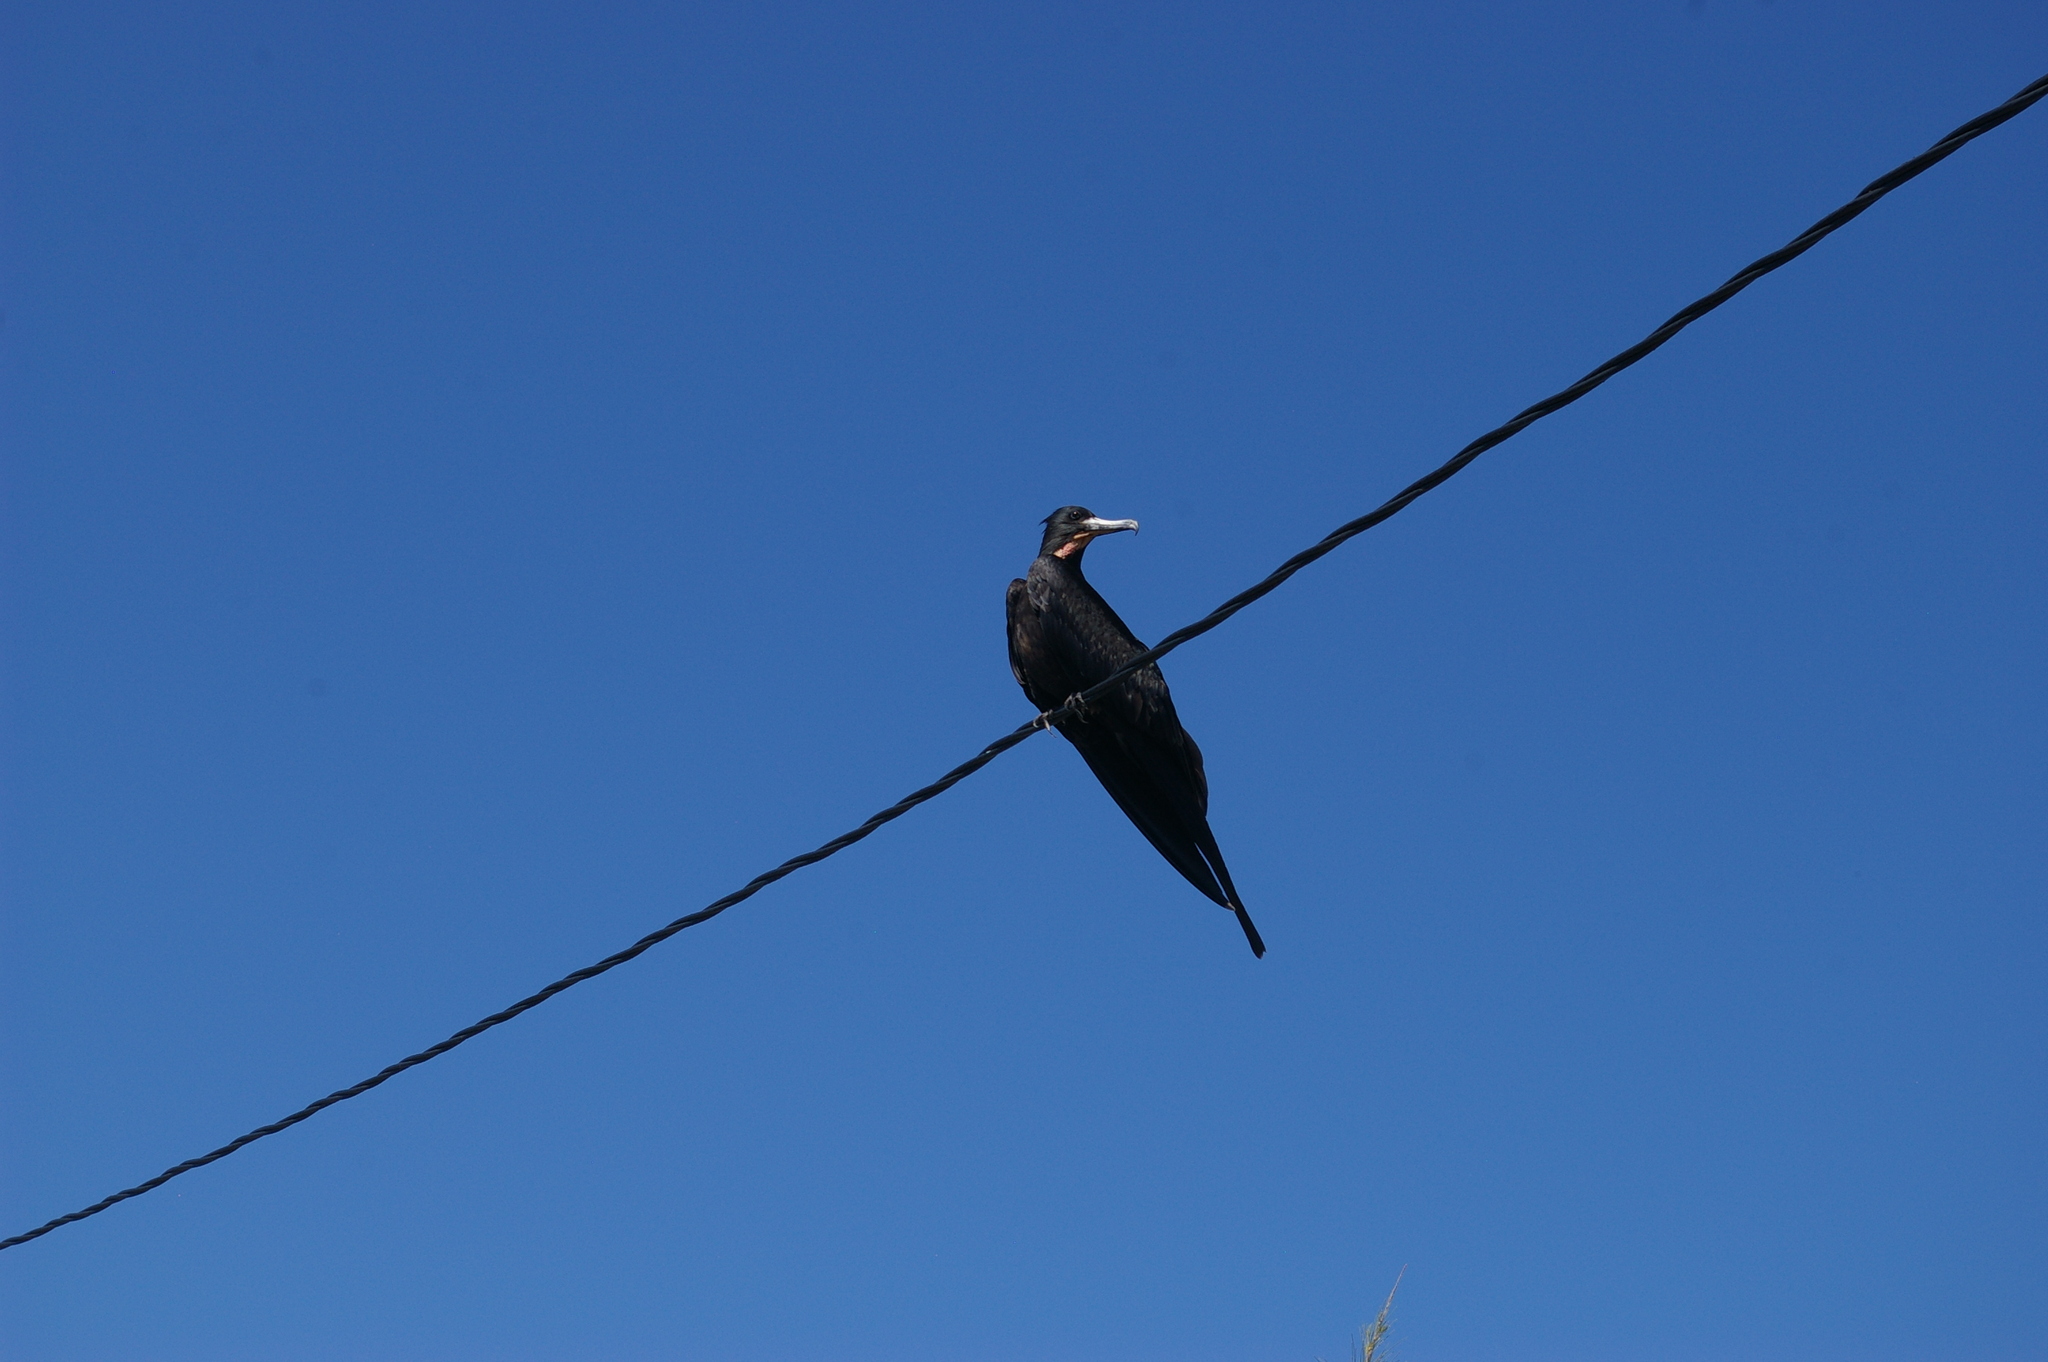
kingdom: Animalia
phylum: Chordata
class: Aves
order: Suliformes
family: Fregatidae
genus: Fregata
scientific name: Fregata magnificens
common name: Magnificent frigatebird
